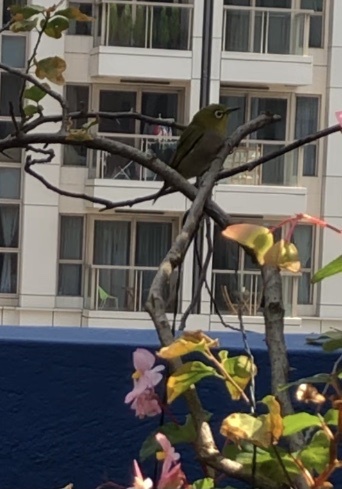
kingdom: Animalia
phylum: Chordata
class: Aves
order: Passeriformes
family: Zosteropidae
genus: Zosterops
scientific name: Zosterops simplex
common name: Swinhoe's white-eye
